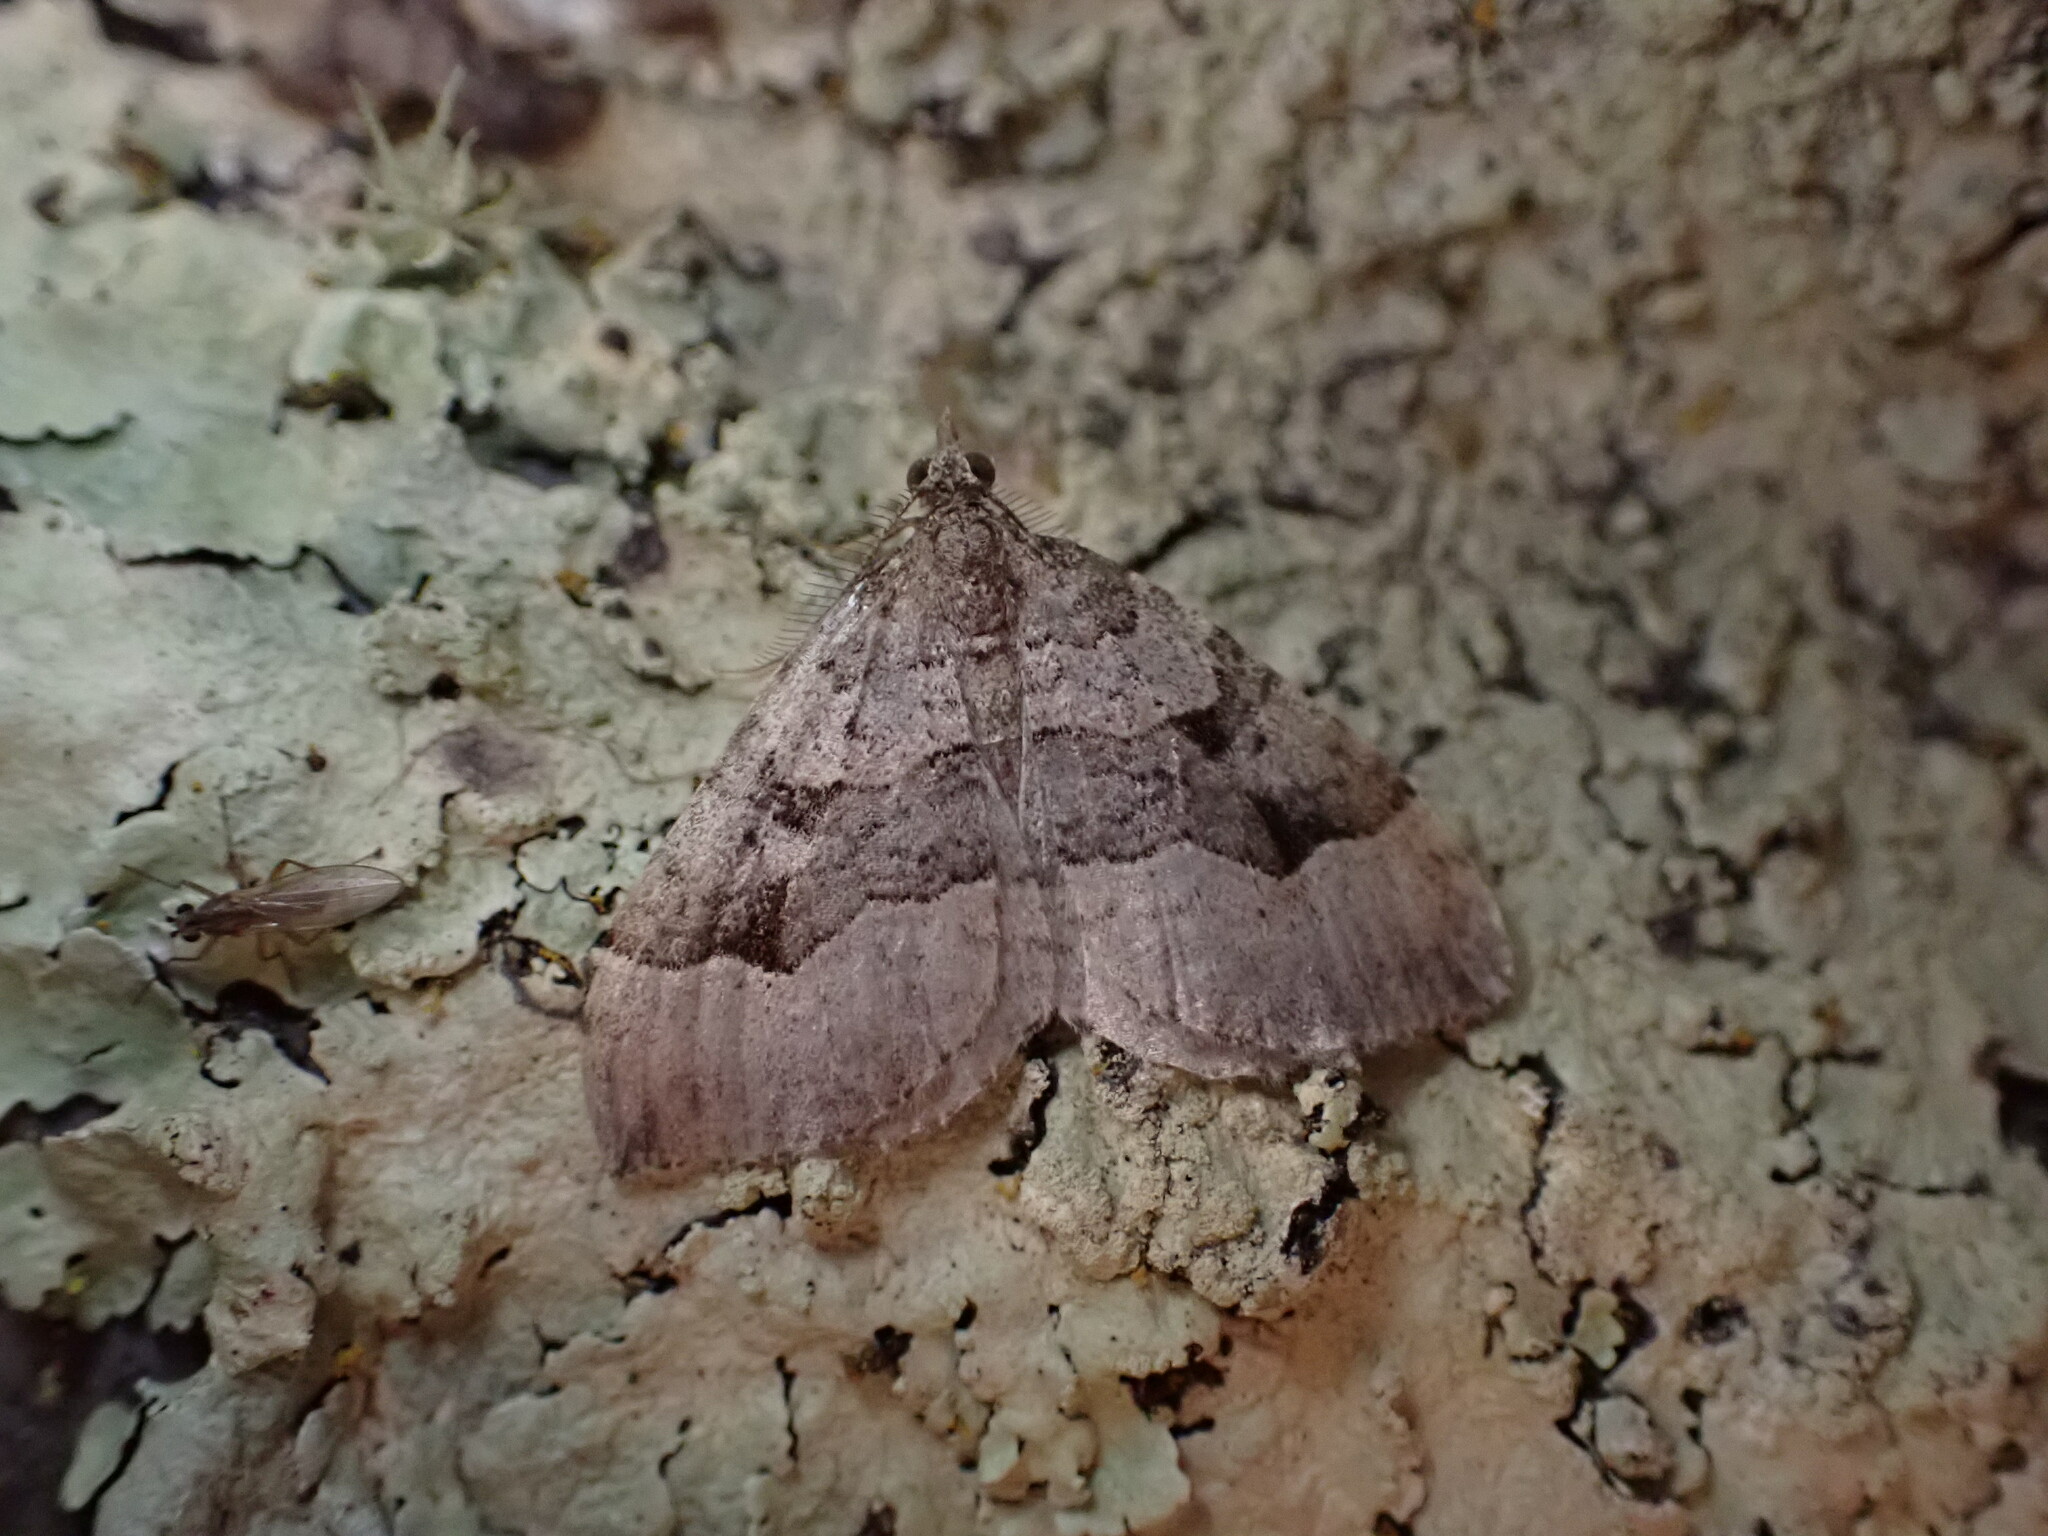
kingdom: Animalia
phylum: Arthropoda
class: Insecta
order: Lepidoptera
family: Geometridae
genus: Epyaxa
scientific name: Epyaxa rosearia
